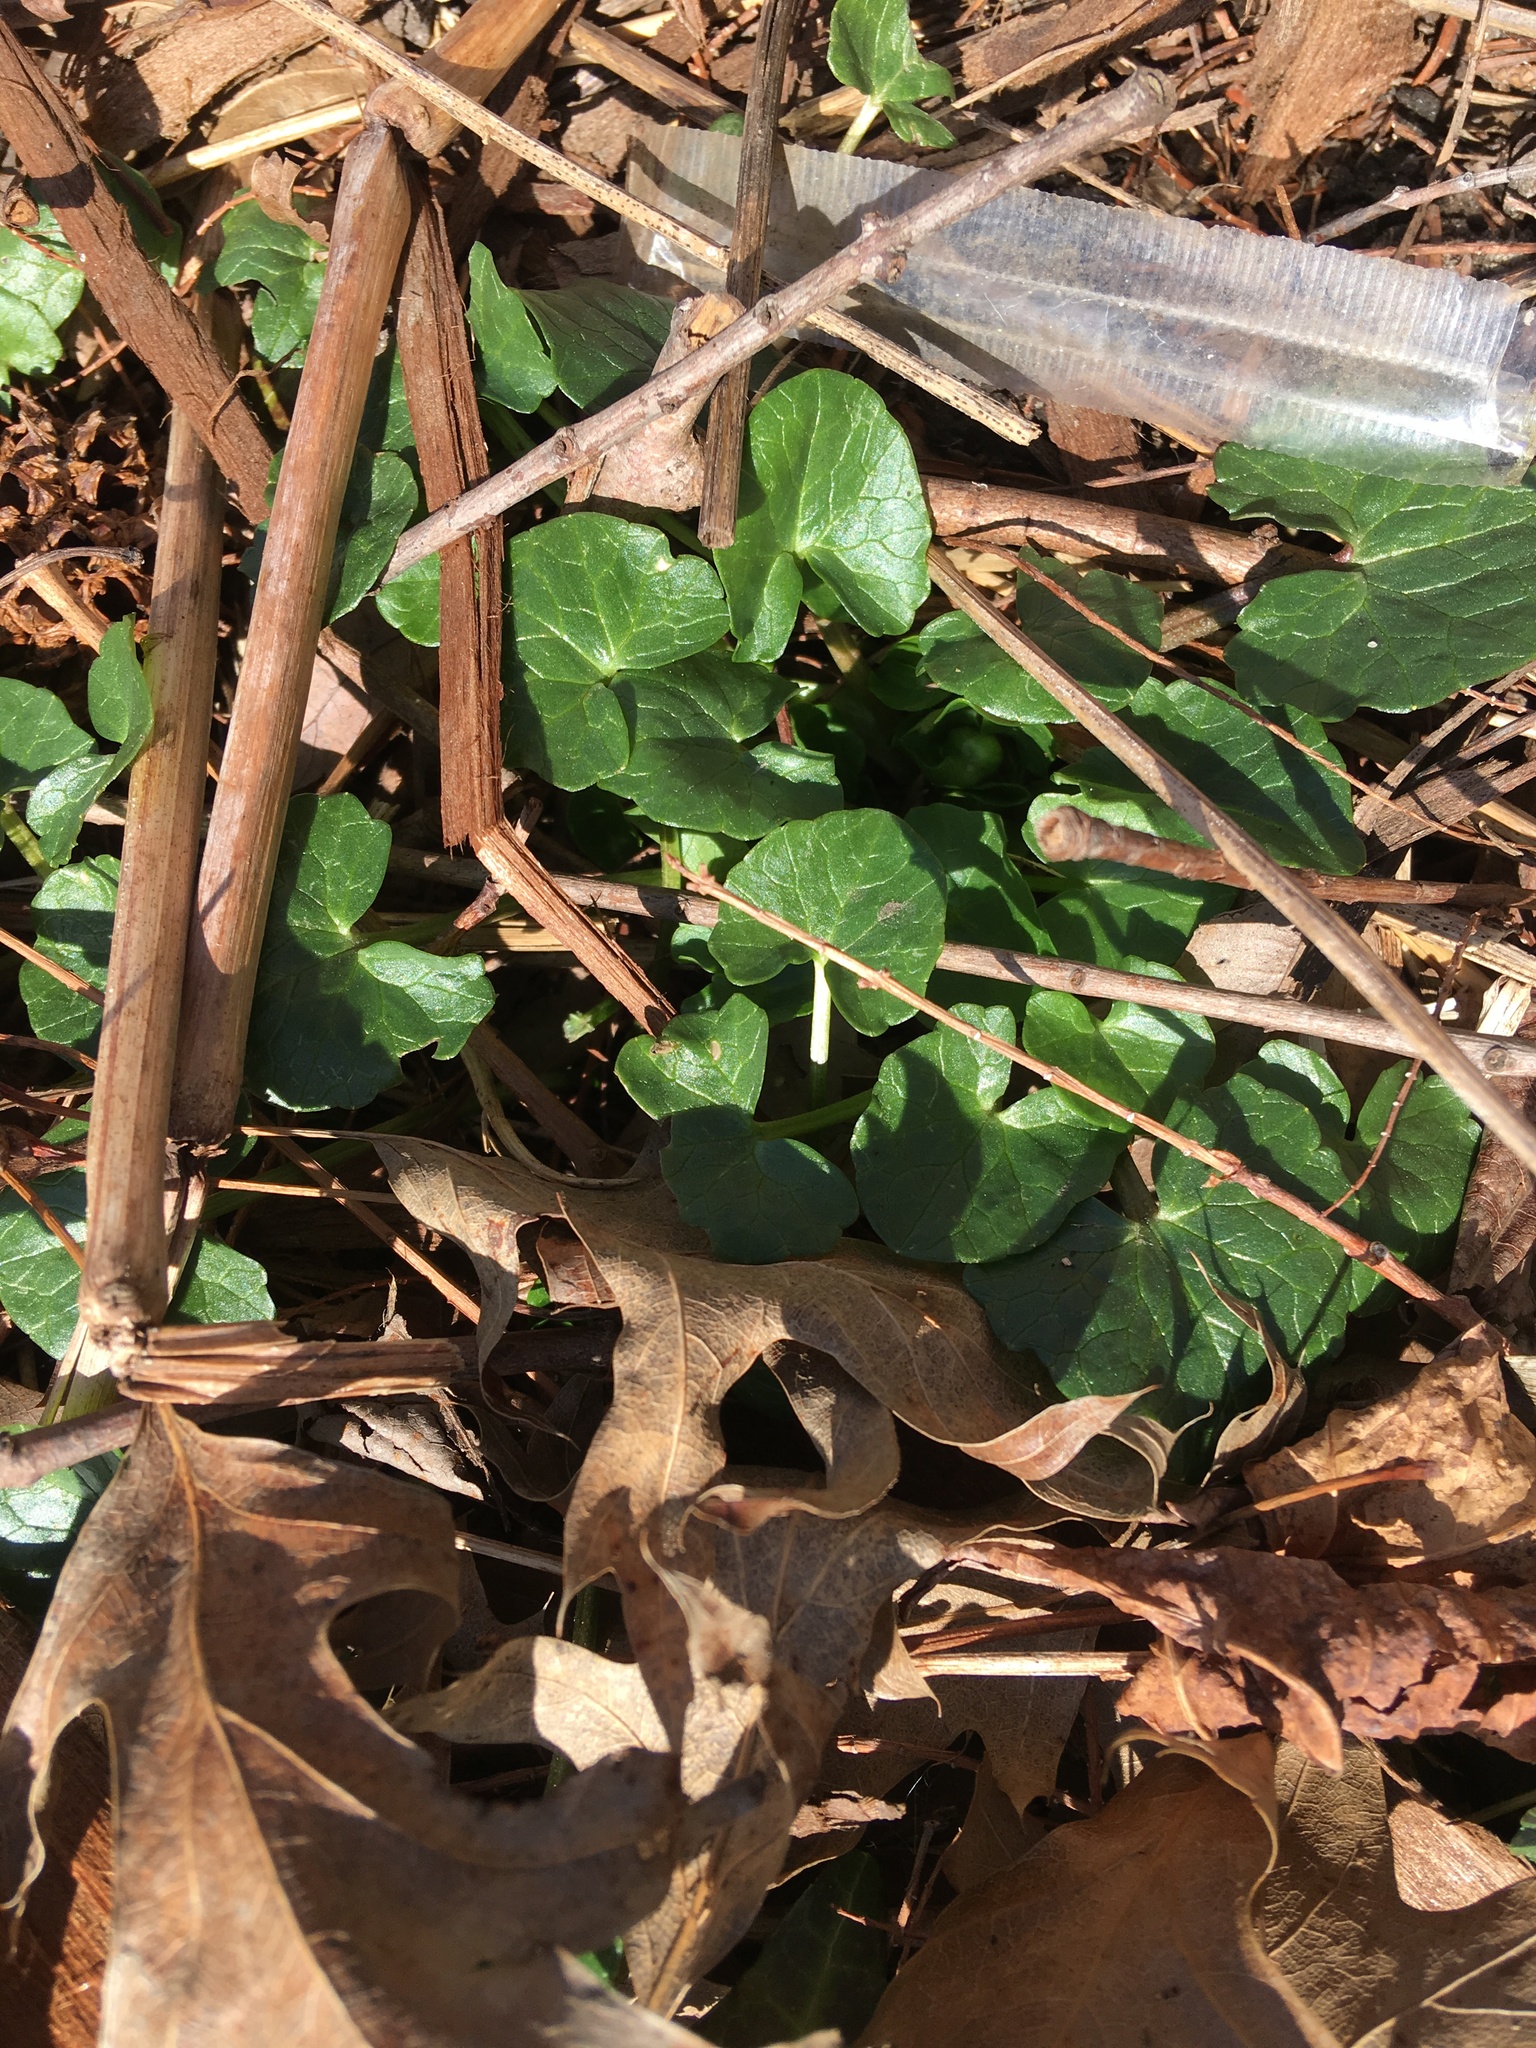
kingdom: Plantae
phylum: Tracheophyta
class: Magnoliopsida
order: Ranunculales
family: Ranunculaceae
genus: Ficaria
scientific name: Ficaria verna
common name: Lesser celandine
